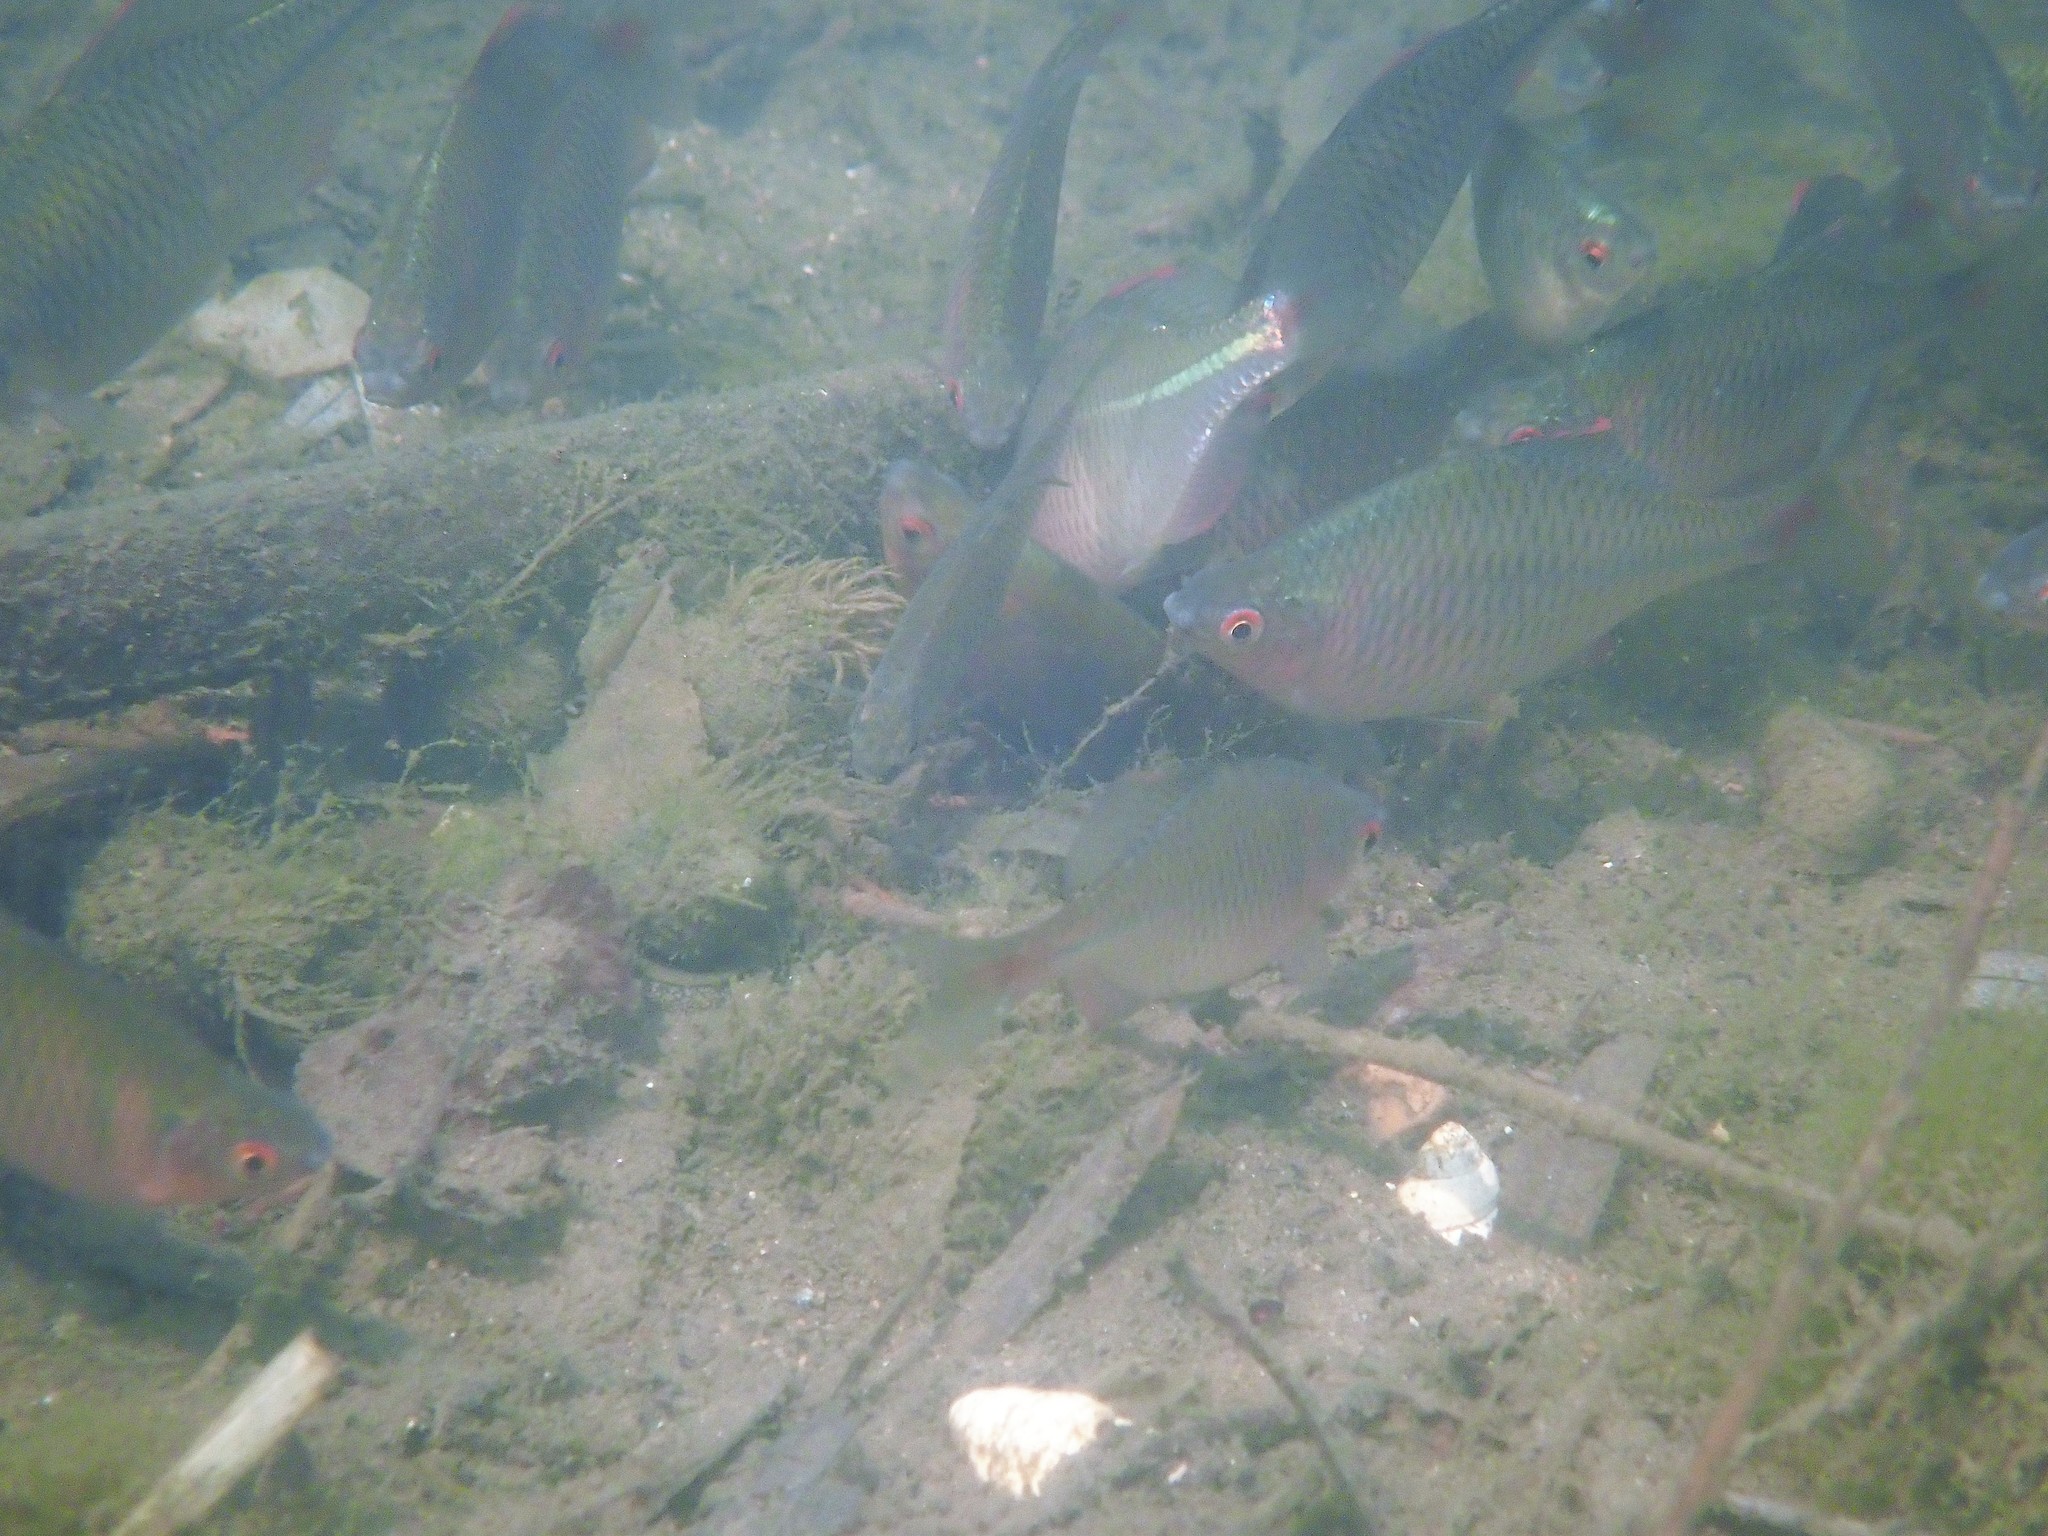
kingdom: Animalia
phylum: Chordata
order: Cypriniformes
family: Cyprinidae
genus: Rhodeus
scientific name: Rhodeus ocellatus
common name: Rose bitterling
